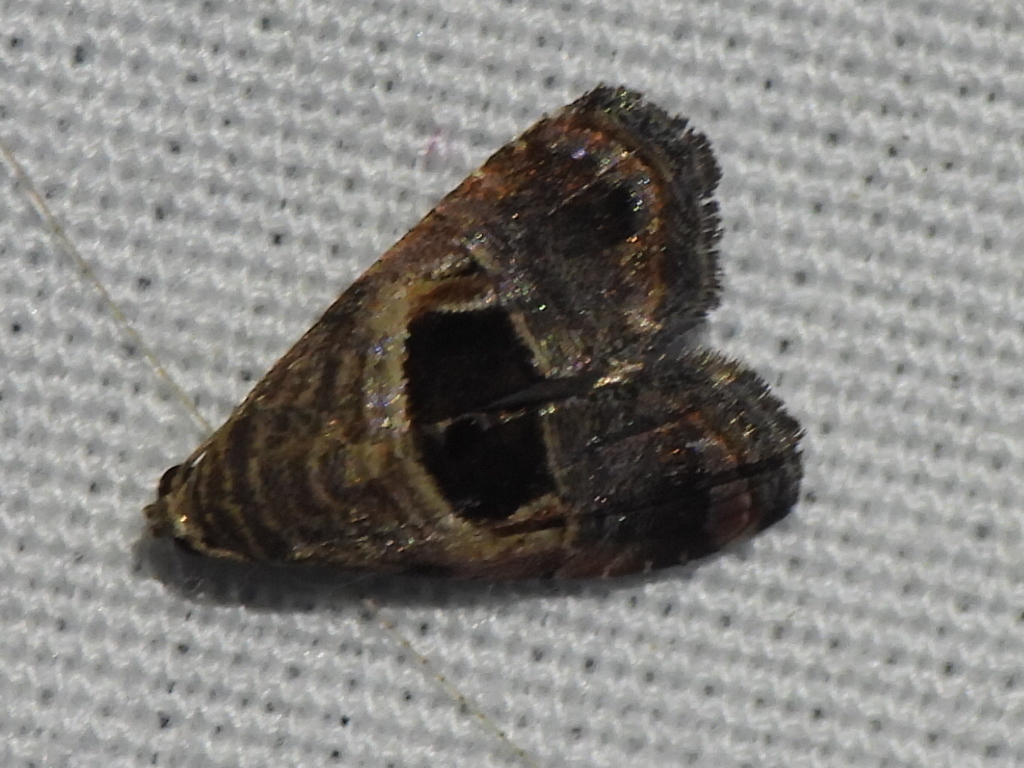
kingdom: Animalia
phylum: Arthropoda
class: Insecta
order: Lepidoptera
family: Noctuidae
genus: Tripudia
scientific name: Tripudia rectangula
